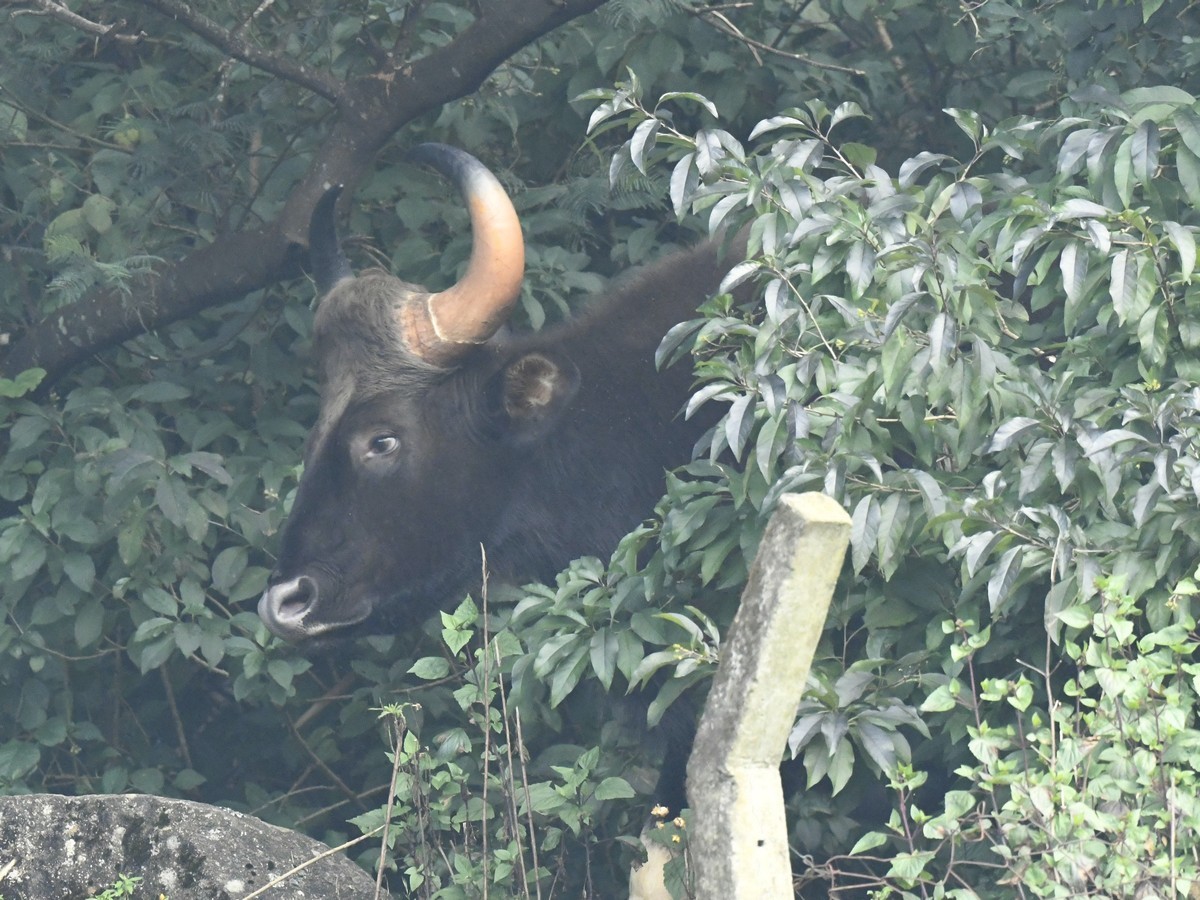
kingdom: Animalia
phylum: Chordata
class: Mammalia
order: Artiodactyla
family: Bovidae
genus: Bos
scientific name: Bos frontalis
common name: Gaur
